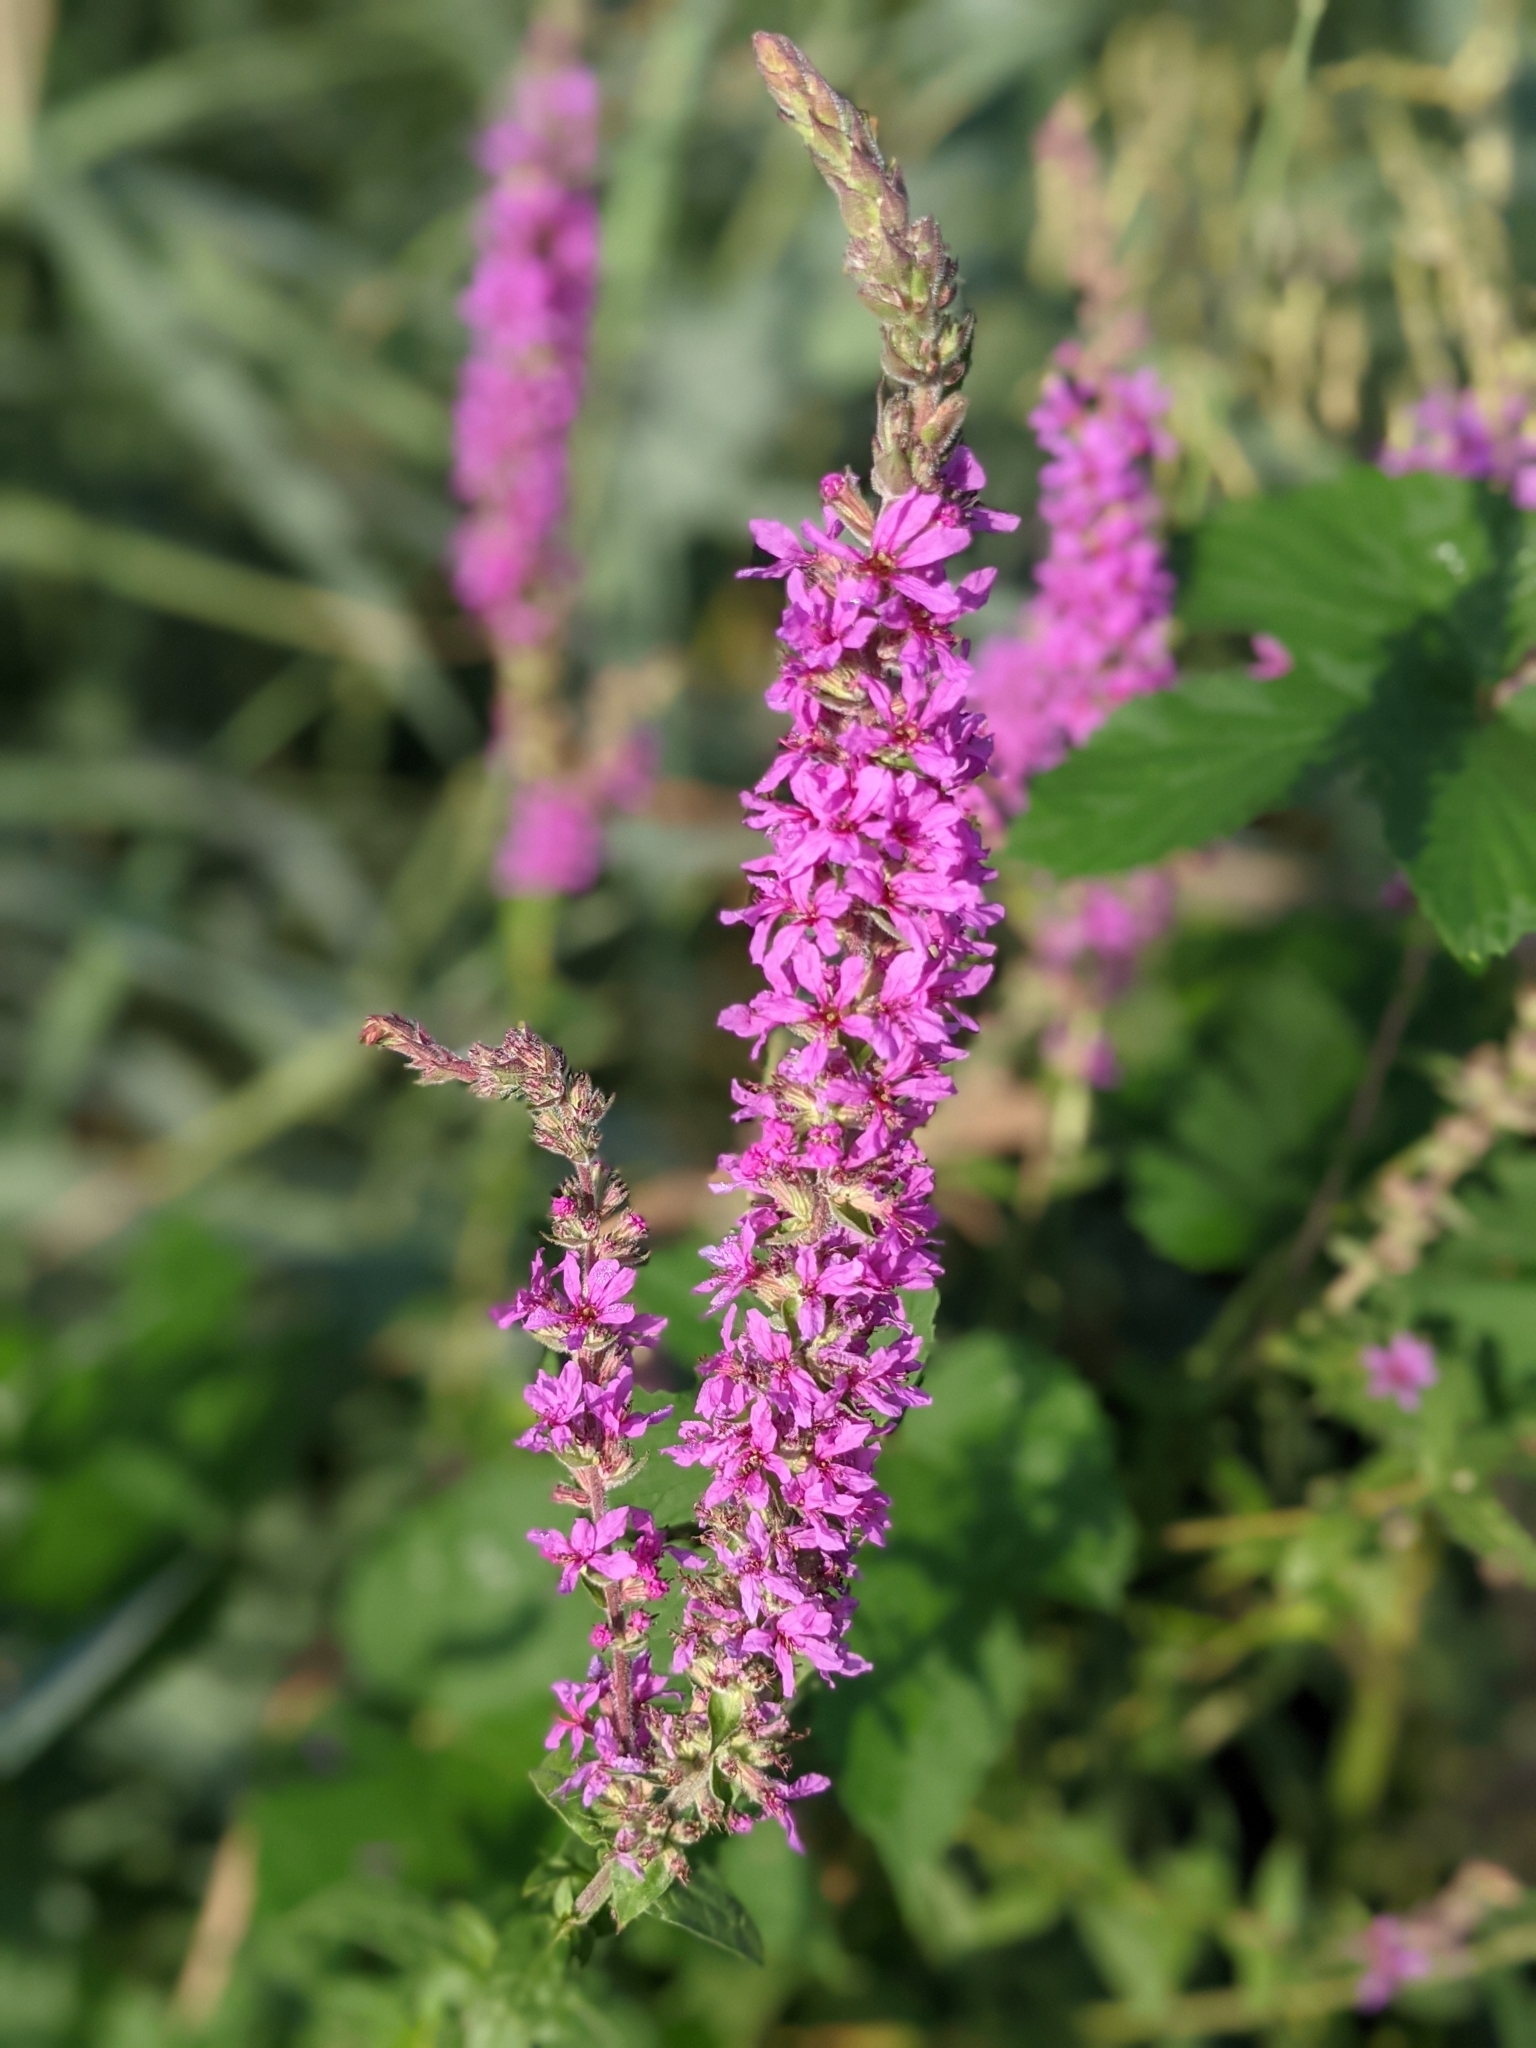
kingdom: Plantae
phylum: Tracheophyta
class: Magnoliopsida
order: Myrtales
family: Lythraceae
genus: Lythrum
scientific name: Lythrum salicaria
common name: Purple loosestrife
